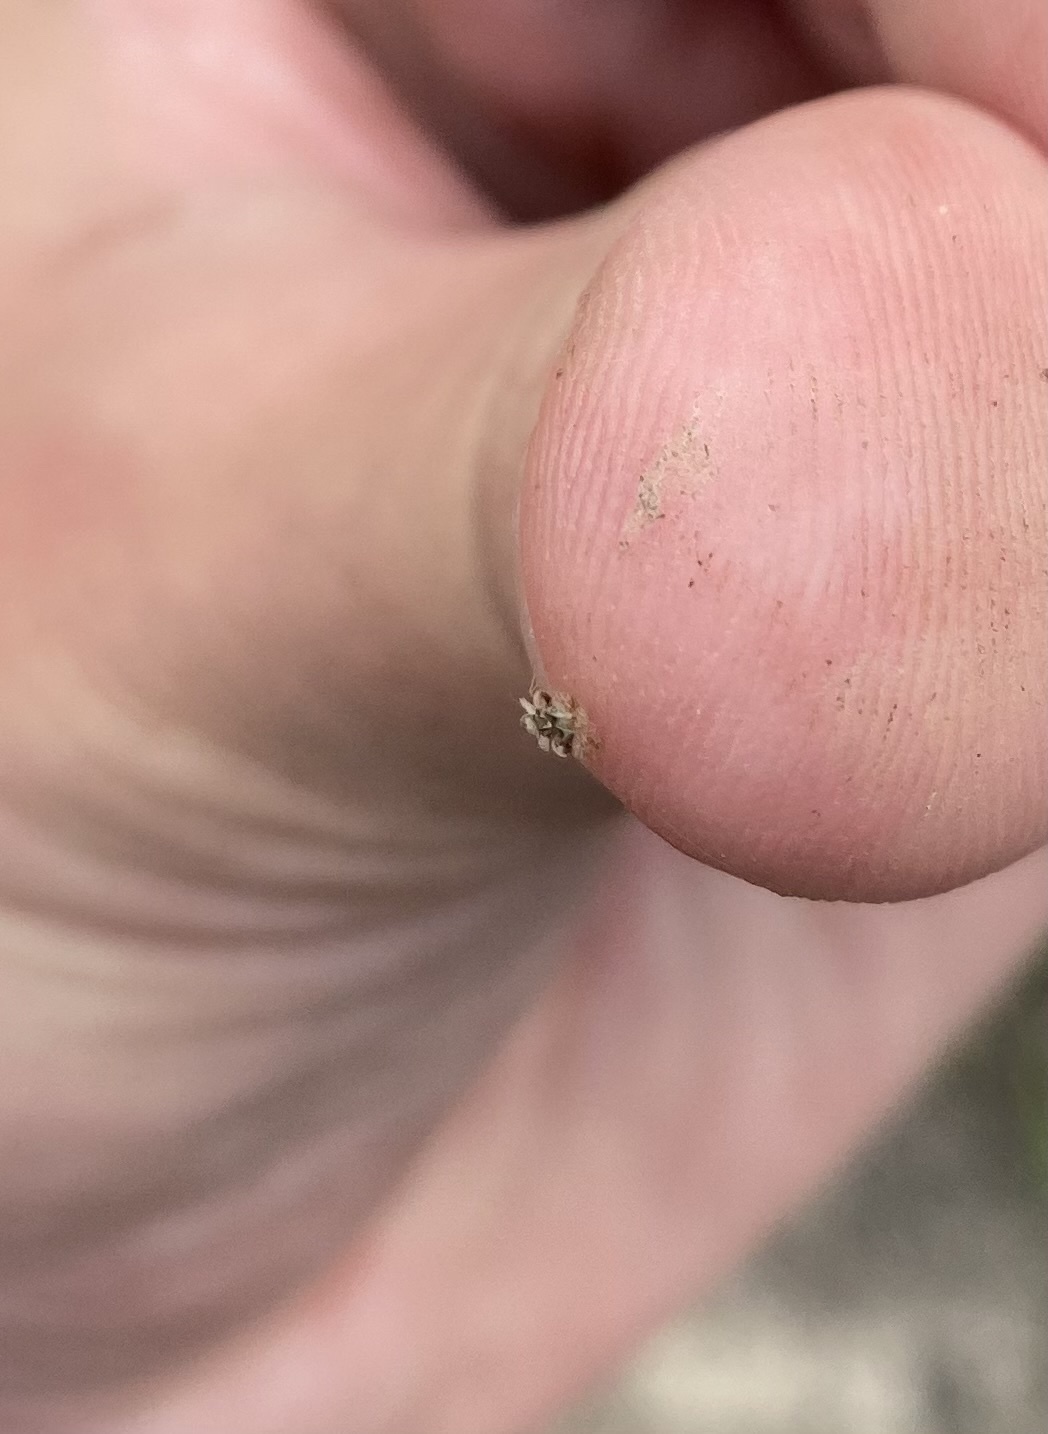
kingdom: Animalia
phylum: Arthropoda
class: Insecta
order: Hemiptera
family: Tingidae
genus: Corythucha
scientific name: Corythucha arcuata
